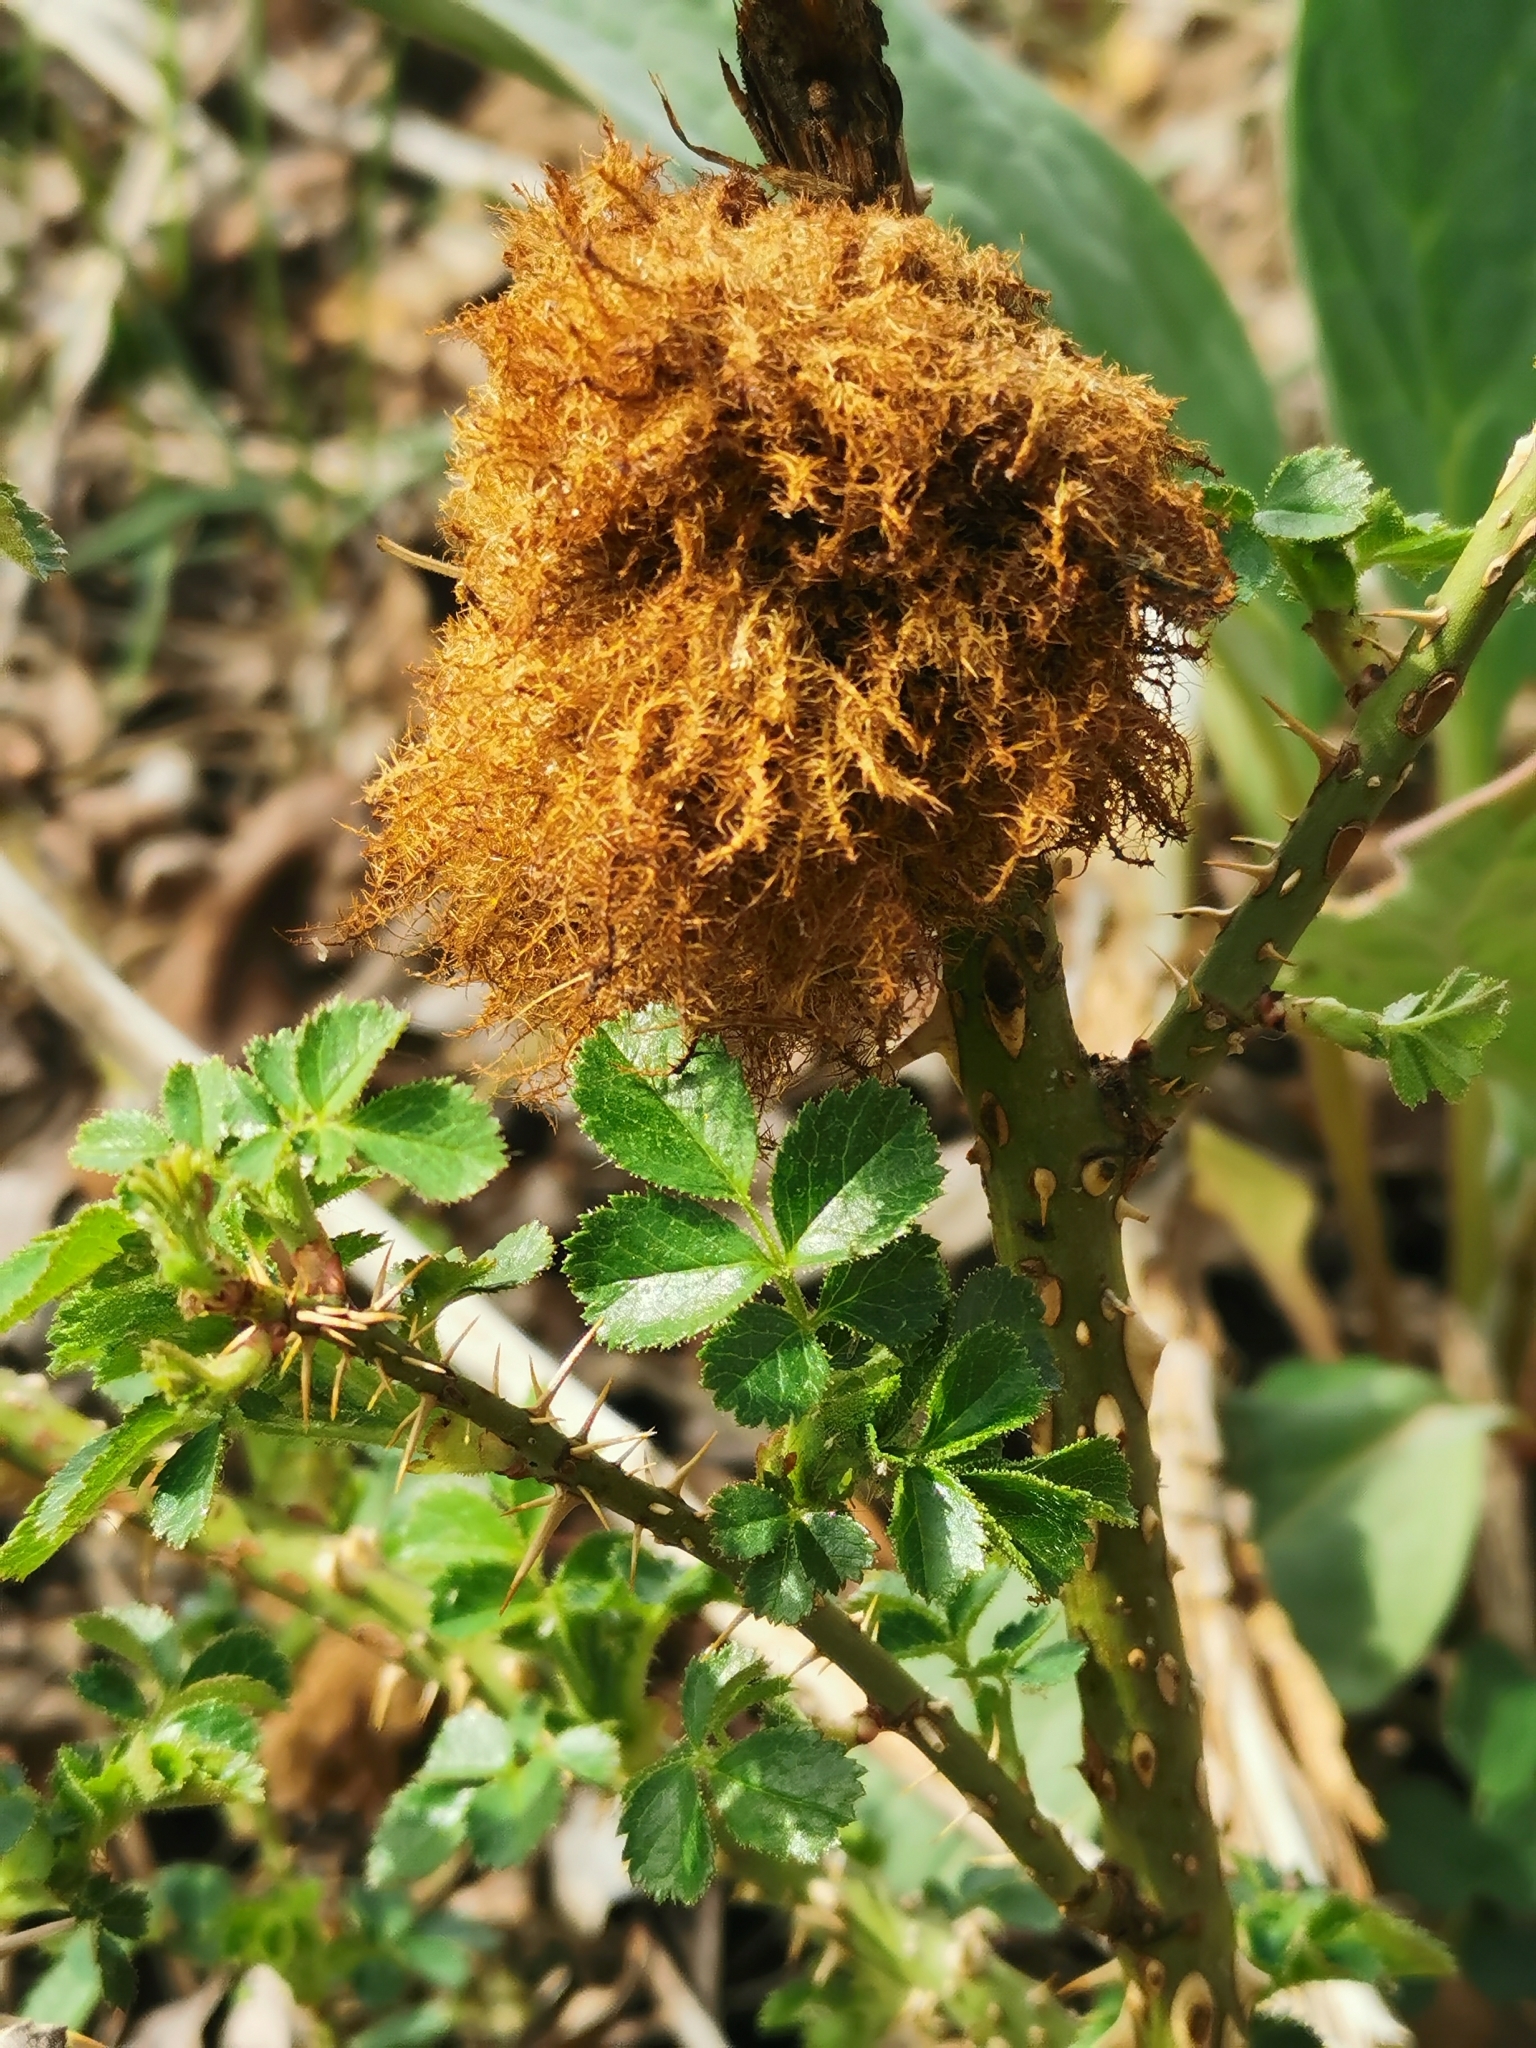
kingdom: Animalia
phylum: Arthropoda
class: Insecta
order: Hymenoptera
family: Cynipidae
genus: Diplolepis
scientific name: Diplolepis rosae
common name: Bedeguar gall
